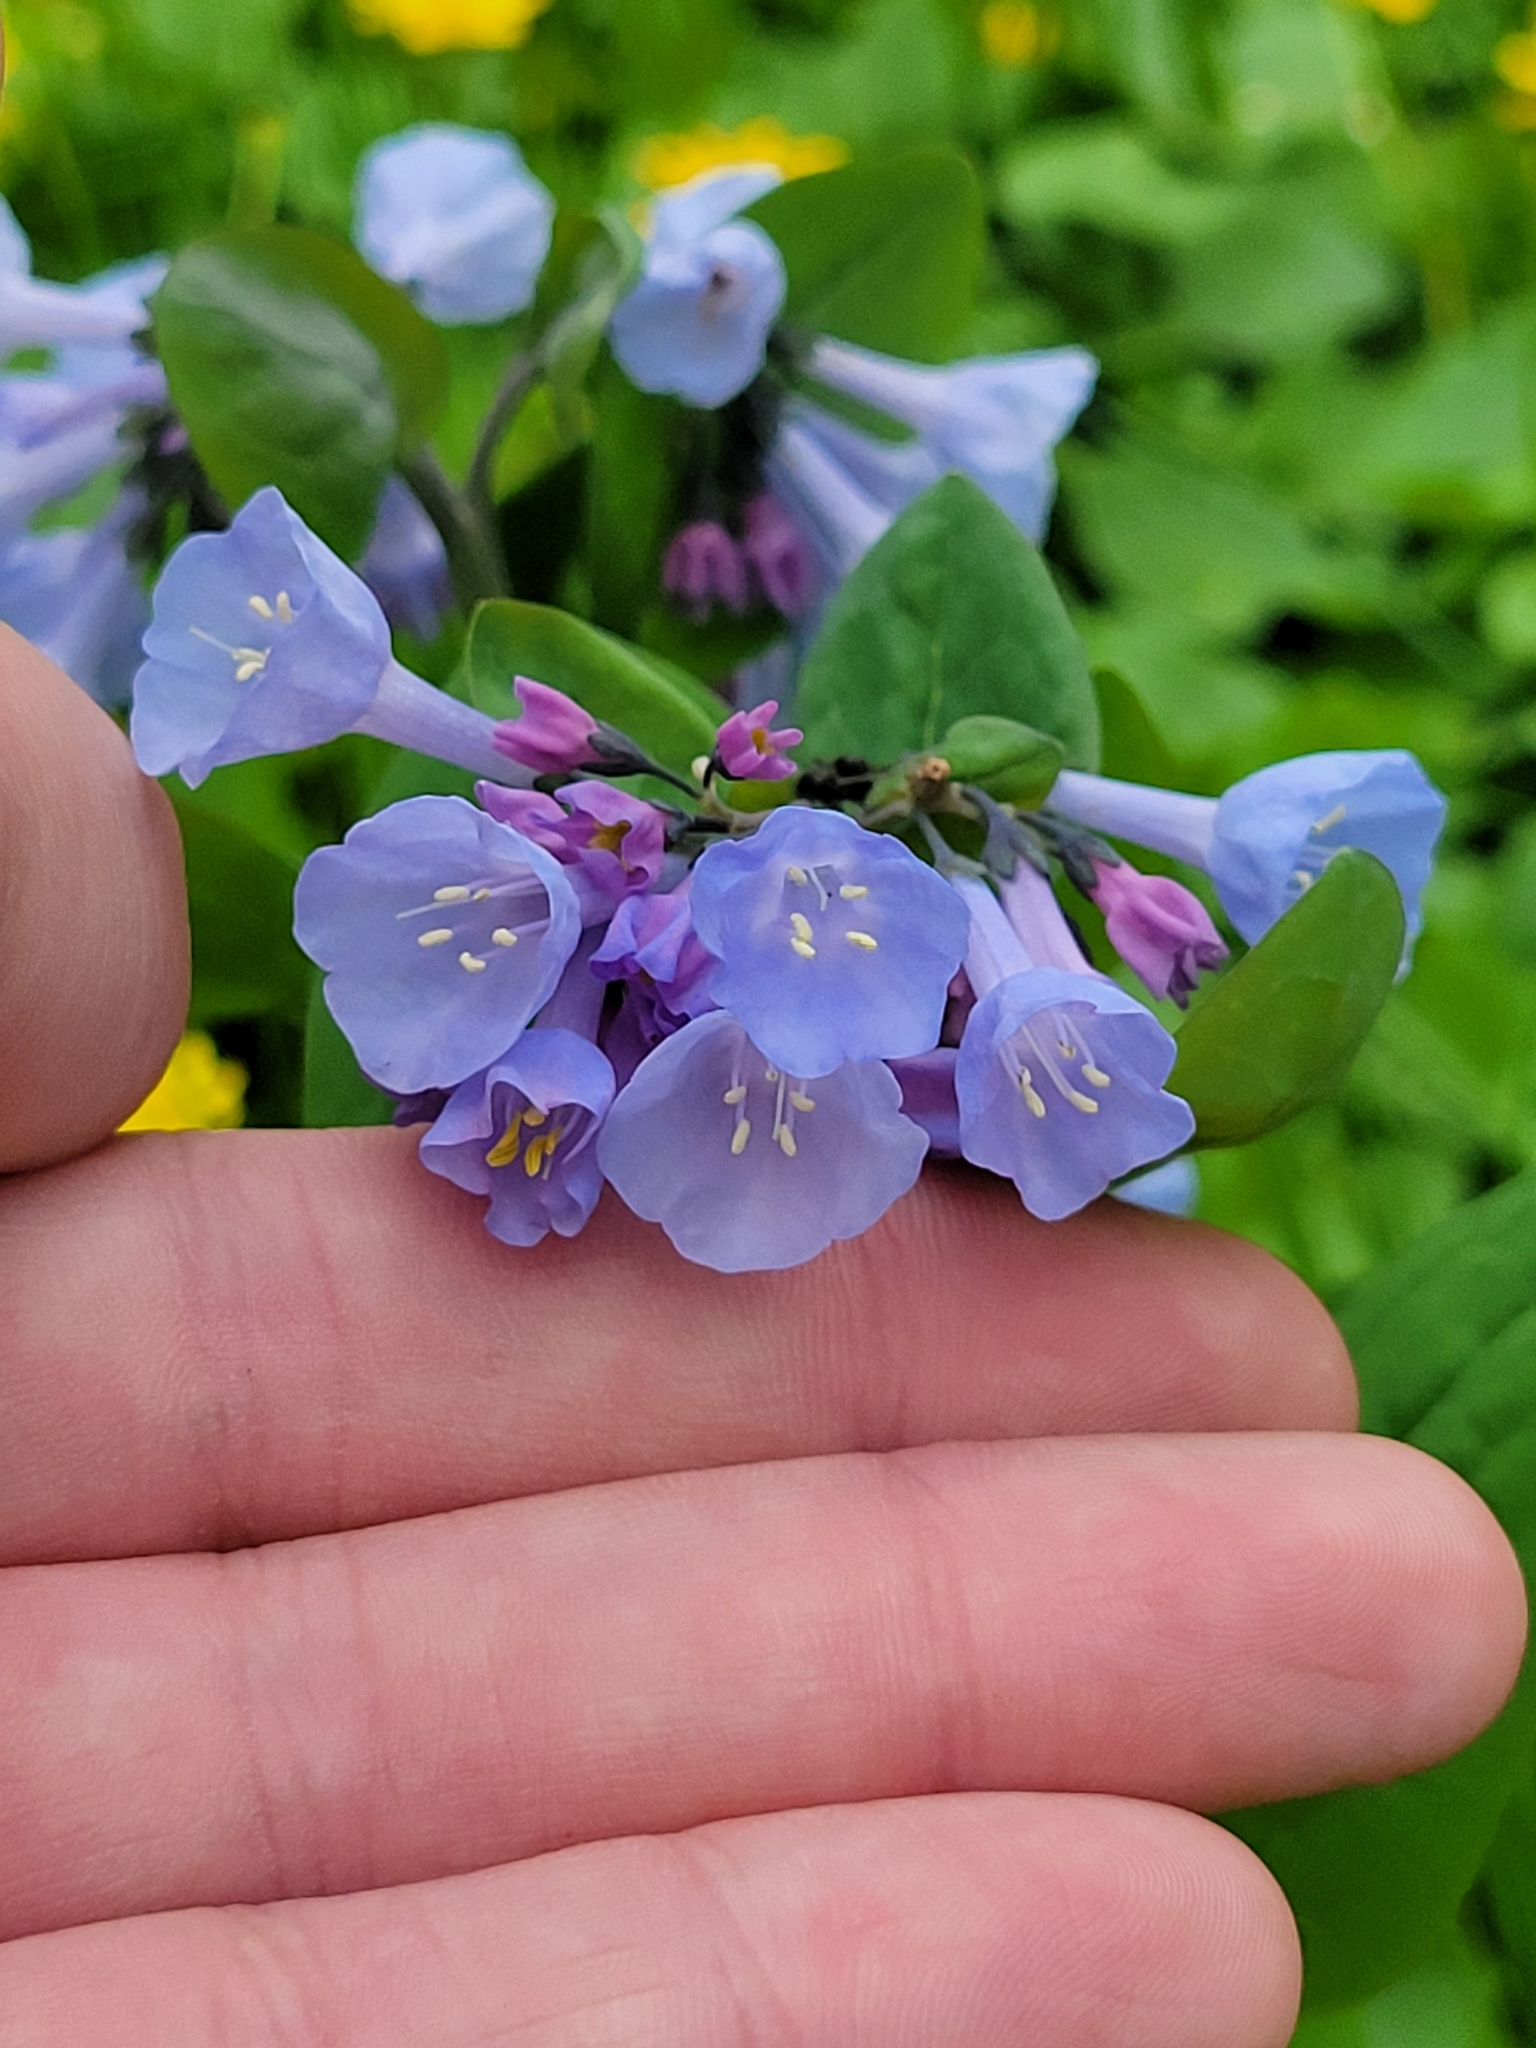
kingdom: Plantae
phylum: Tracheophyta
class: Magnoliopsida
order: Boraginales
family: Boraginaceae
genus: Mertensia
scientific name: Mertensia virginica
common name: Virginia bluebells
